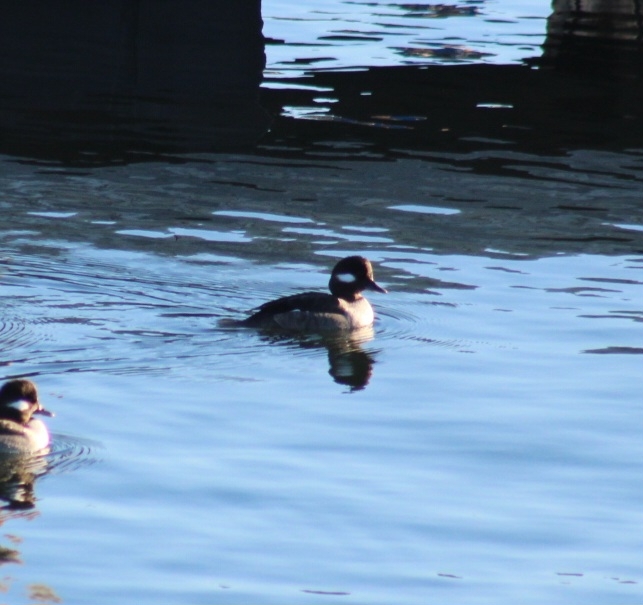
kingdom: Animalia
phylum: Chordata
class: Aves
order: Anseriformes
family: Anatidae
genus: Bucephala
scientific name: Bucephala albeola
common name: Bufflehead
